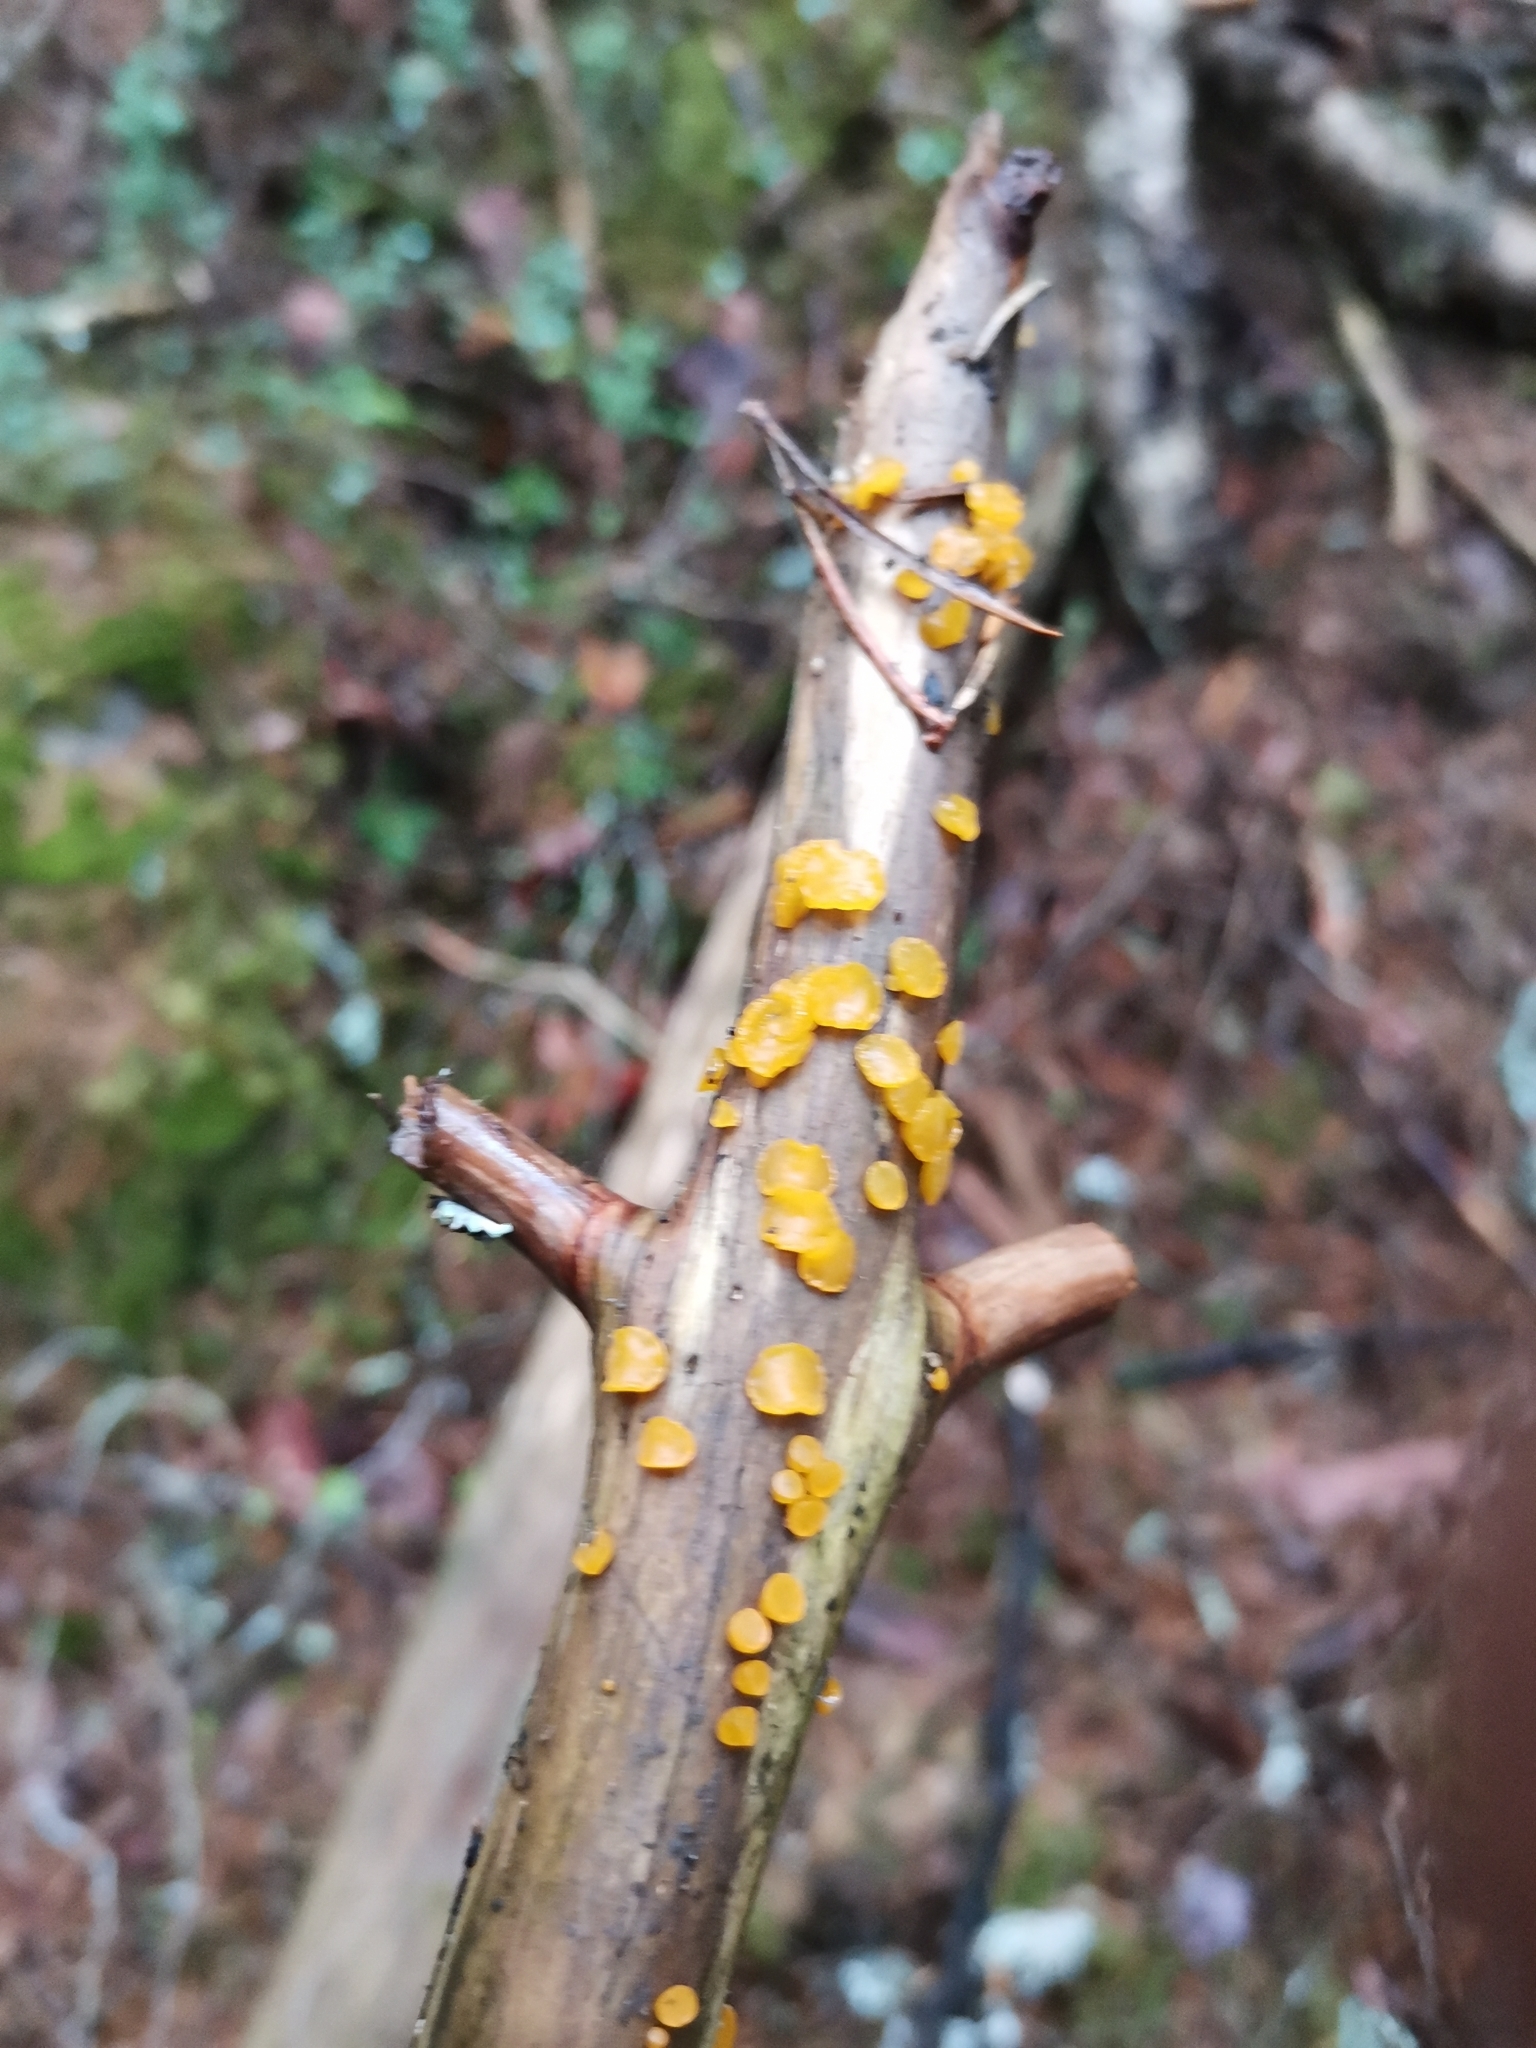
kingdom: Fungi
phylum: Basidiomycota
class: Dacrymycetes
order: Dacrymycetales
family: Dacrymycetaceae
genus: Guepiniopsis
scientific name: Guepiniopsis alpina
